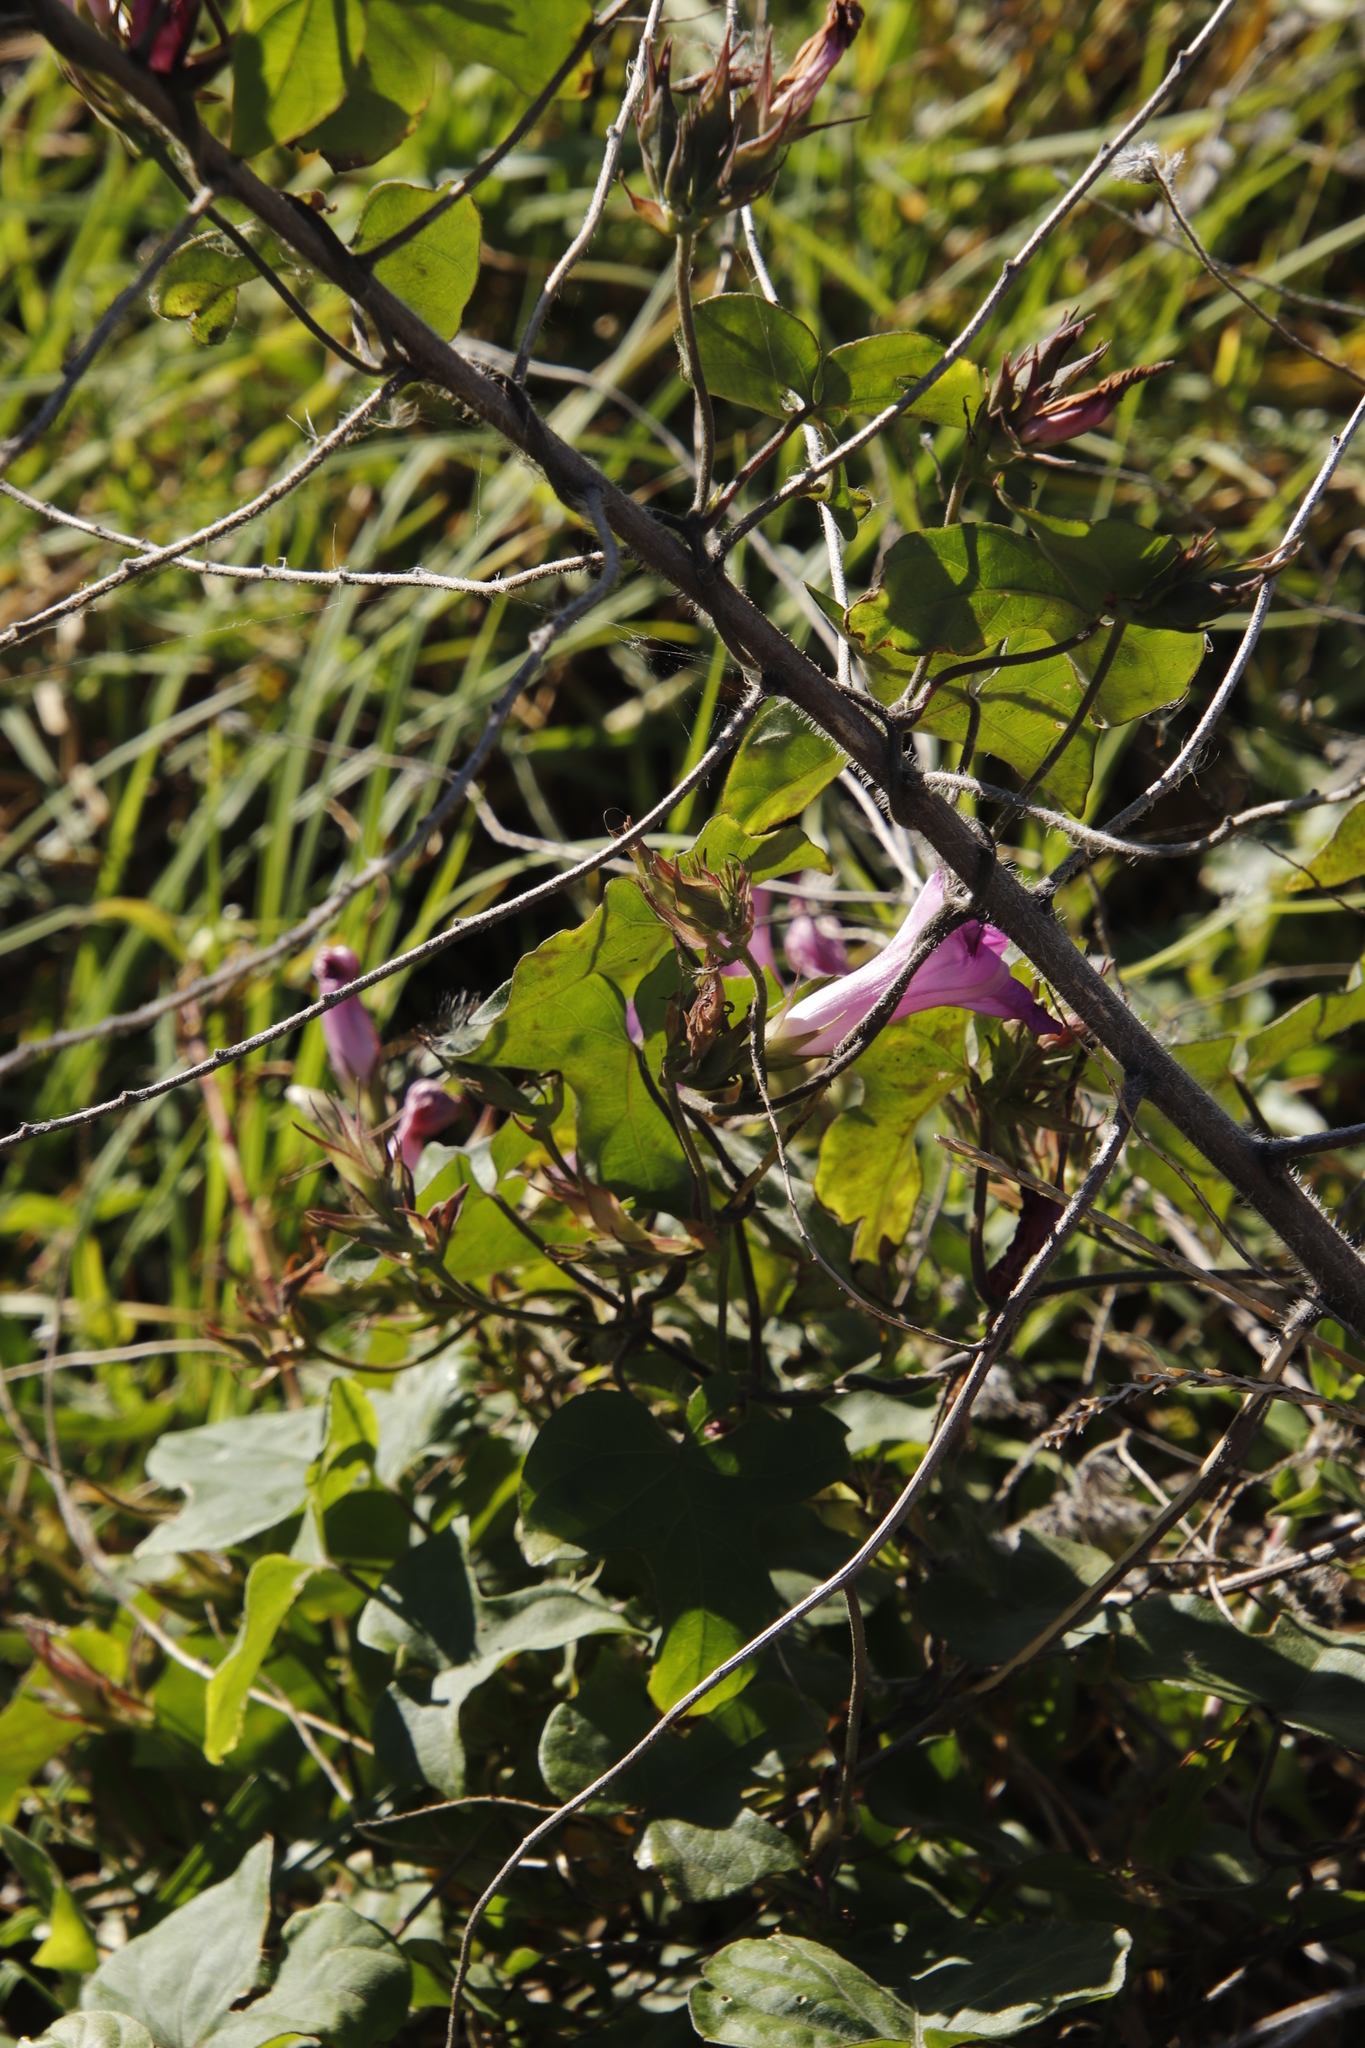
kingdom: Plantae
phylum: Tracheophyta
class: Magnoliopsida
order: Solanales
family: Convolvulaceae
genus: Ipomoea
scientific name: Ipomoea indica
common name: Blue dawnflower
